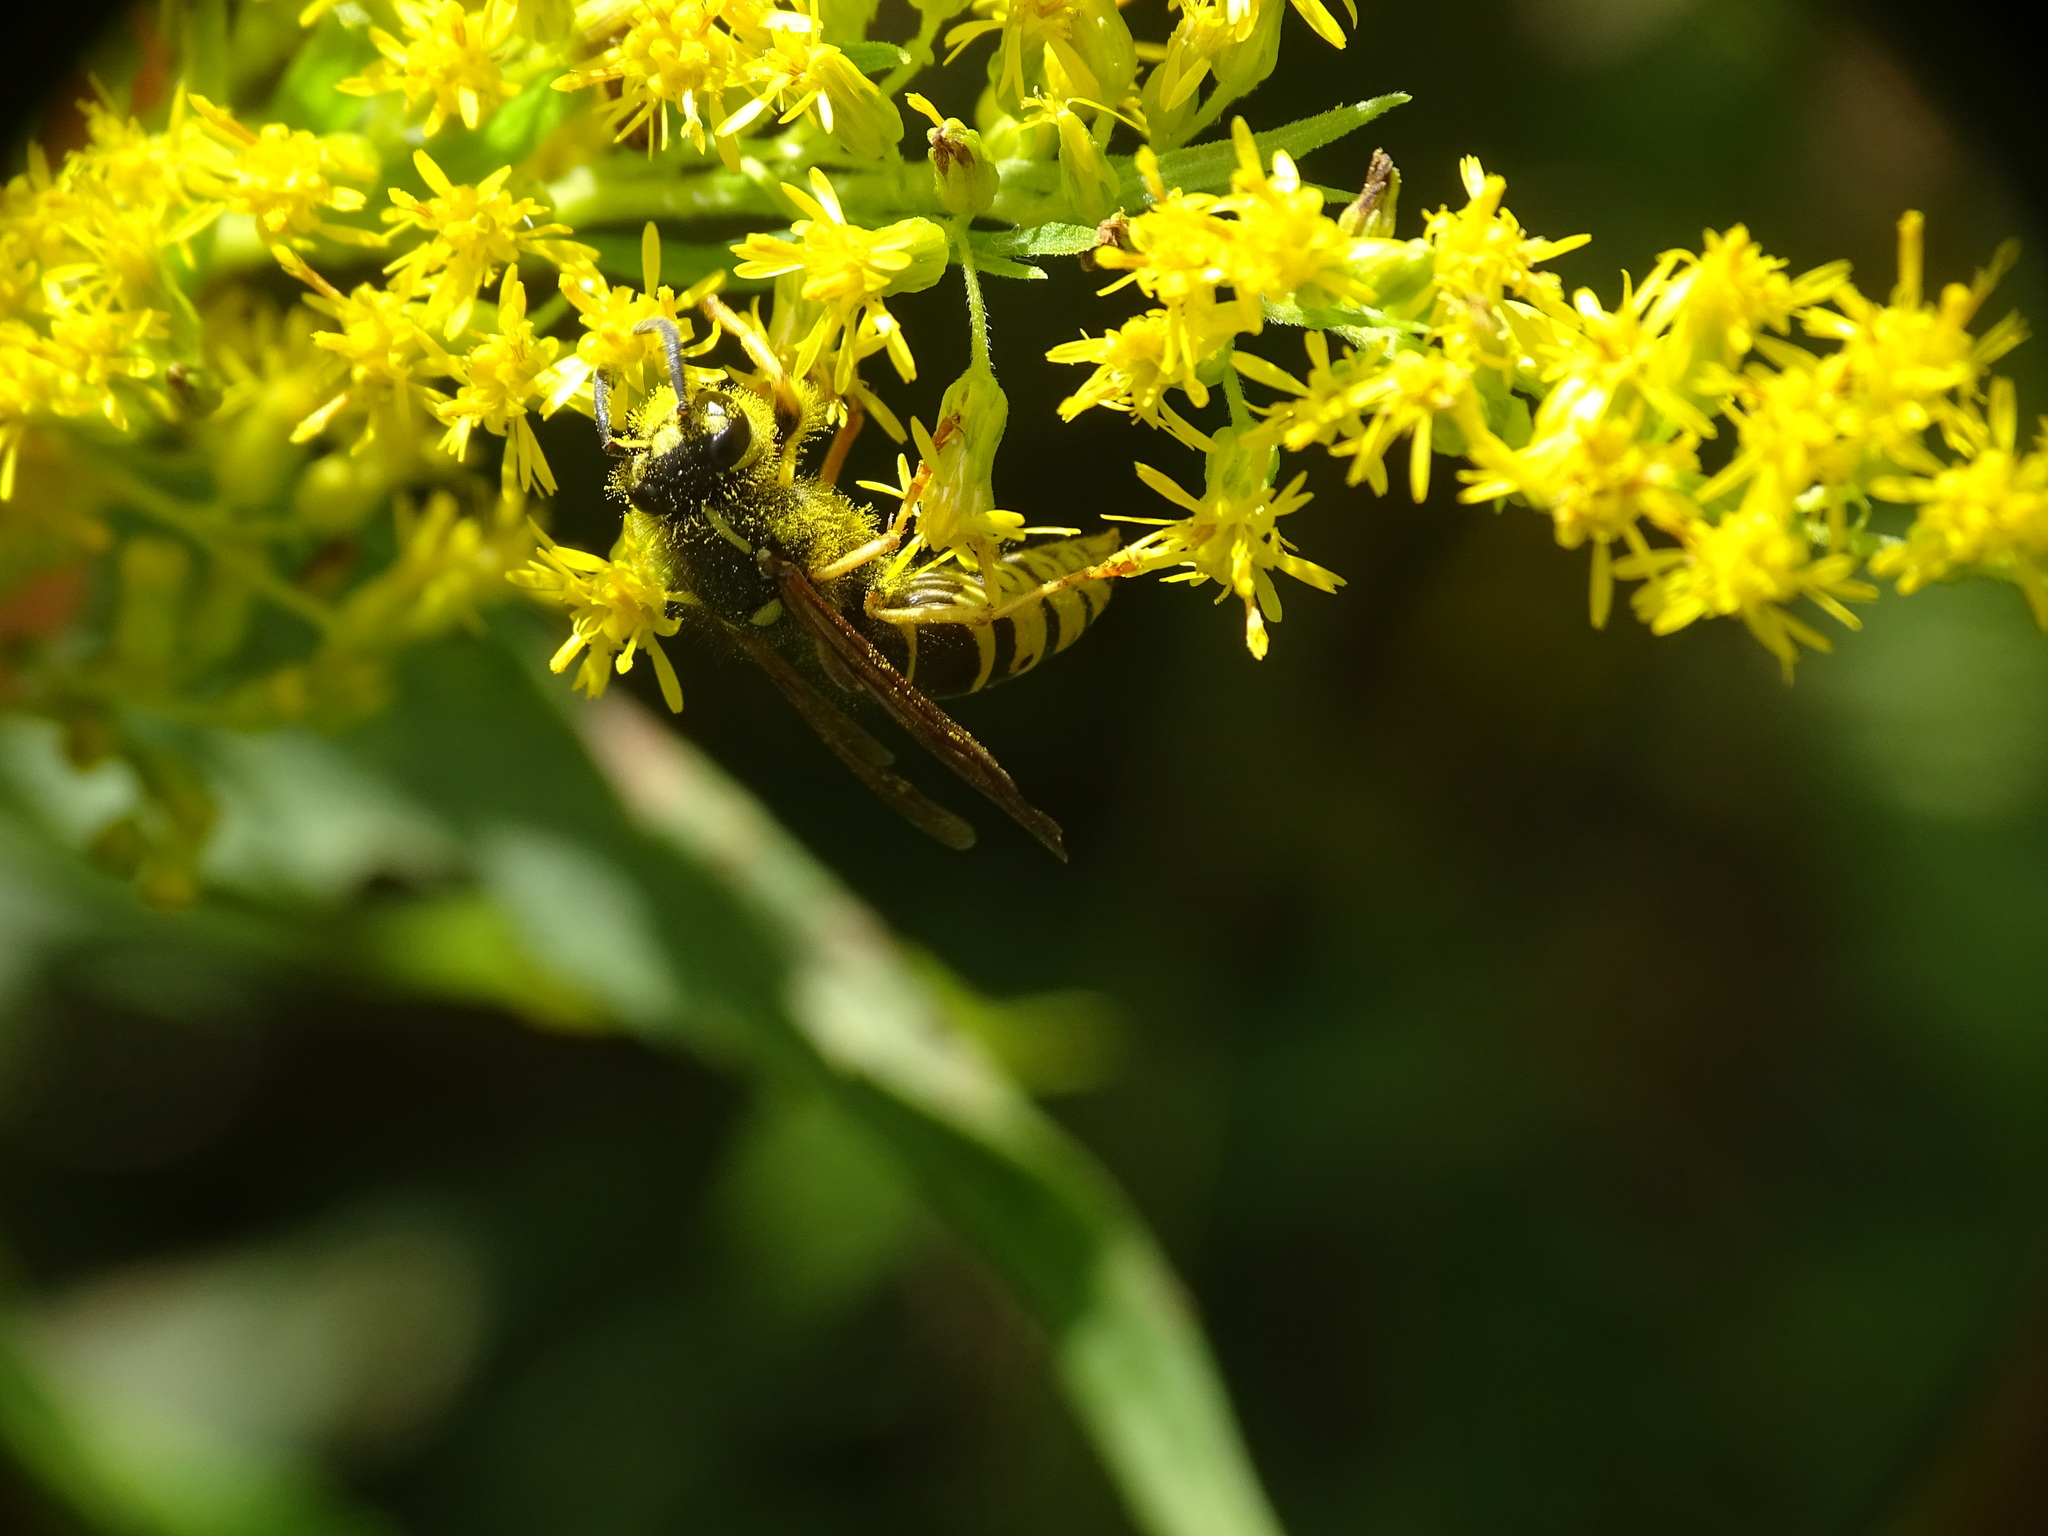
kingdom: Animalia
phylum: Arthropoda
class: Insecta
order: Hymenoptera
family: Vespidae
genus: Vespula
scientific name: Vespula vidua
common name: Widow yellowjacket
